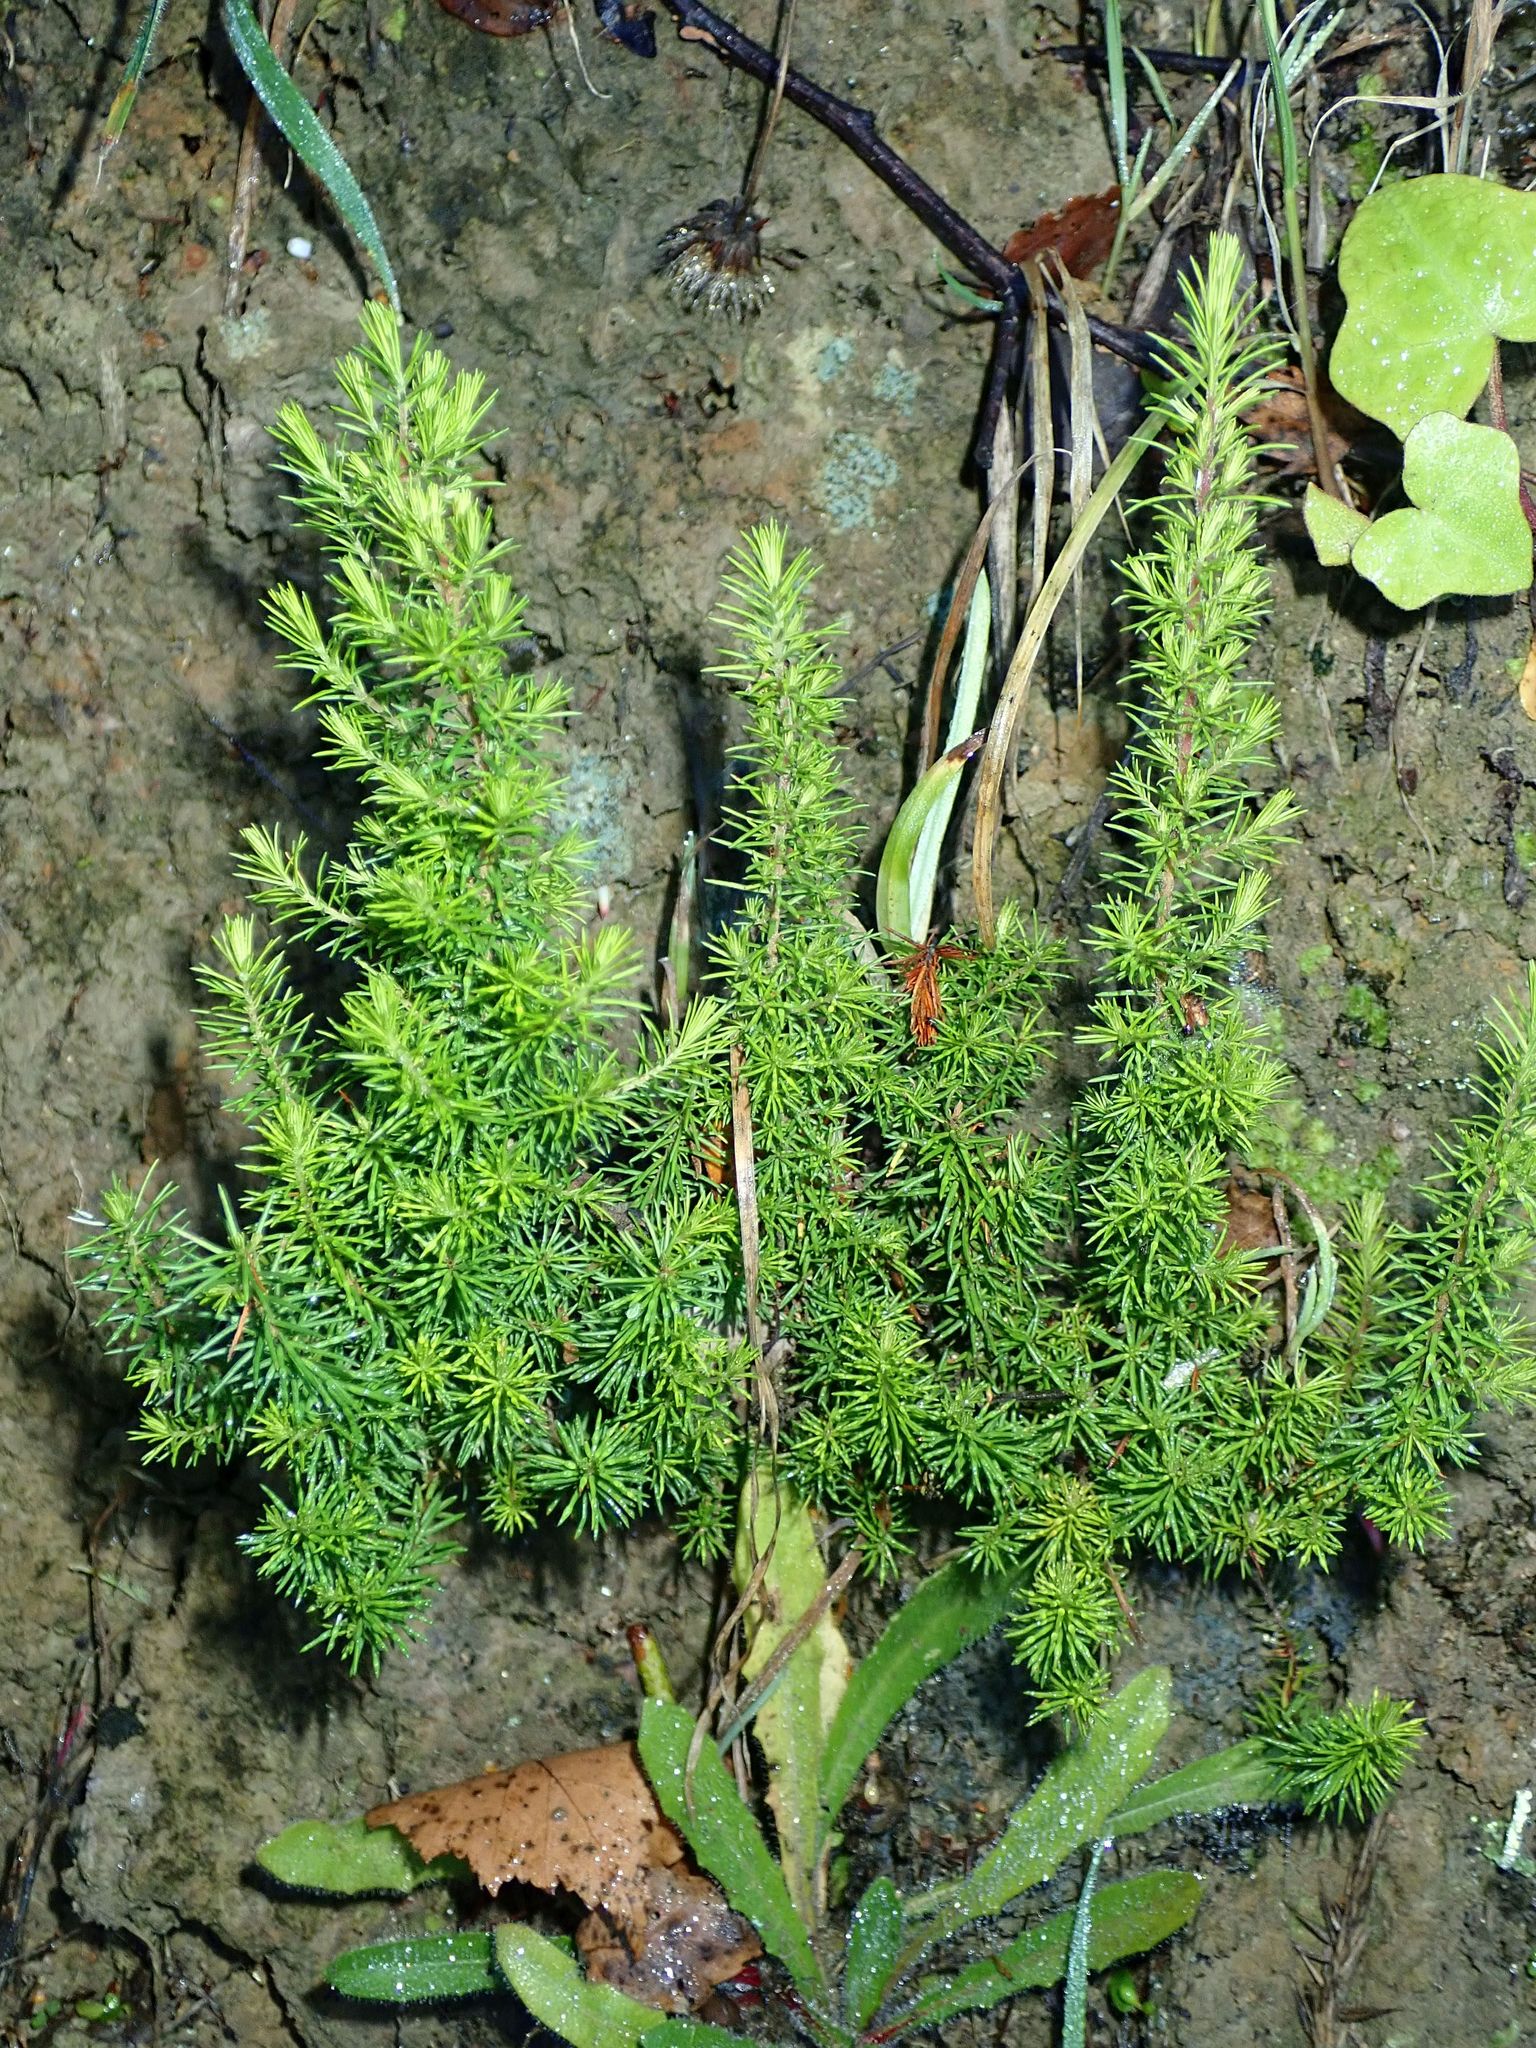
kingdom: Plantae
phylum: Tracheophyta
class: Magnoliopsida
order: Ericales
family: Ericaceae
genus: Erica
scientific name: Erica lusitanica
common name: Spanish heath
